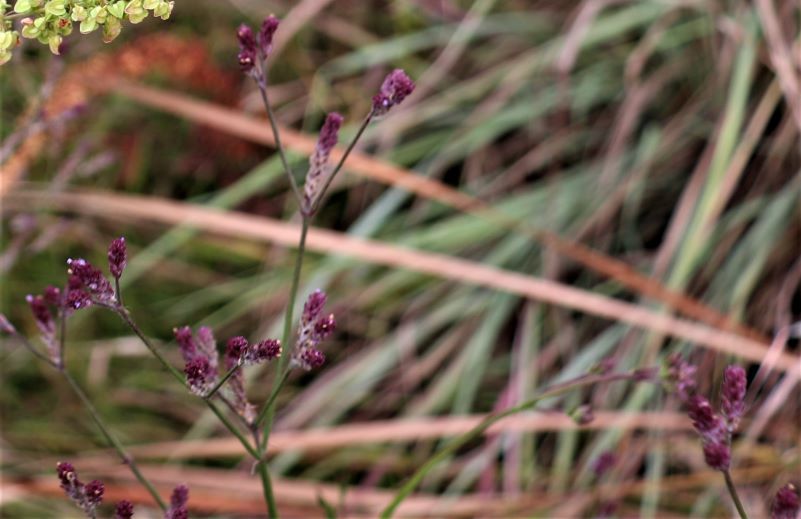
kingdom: Plantae
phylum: Tracheophyta
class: Magnoliopsida
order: Lamiales
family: Verbenaceae
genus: Verbena
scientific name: Verbena bonariensis
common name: Purpletop vervain
